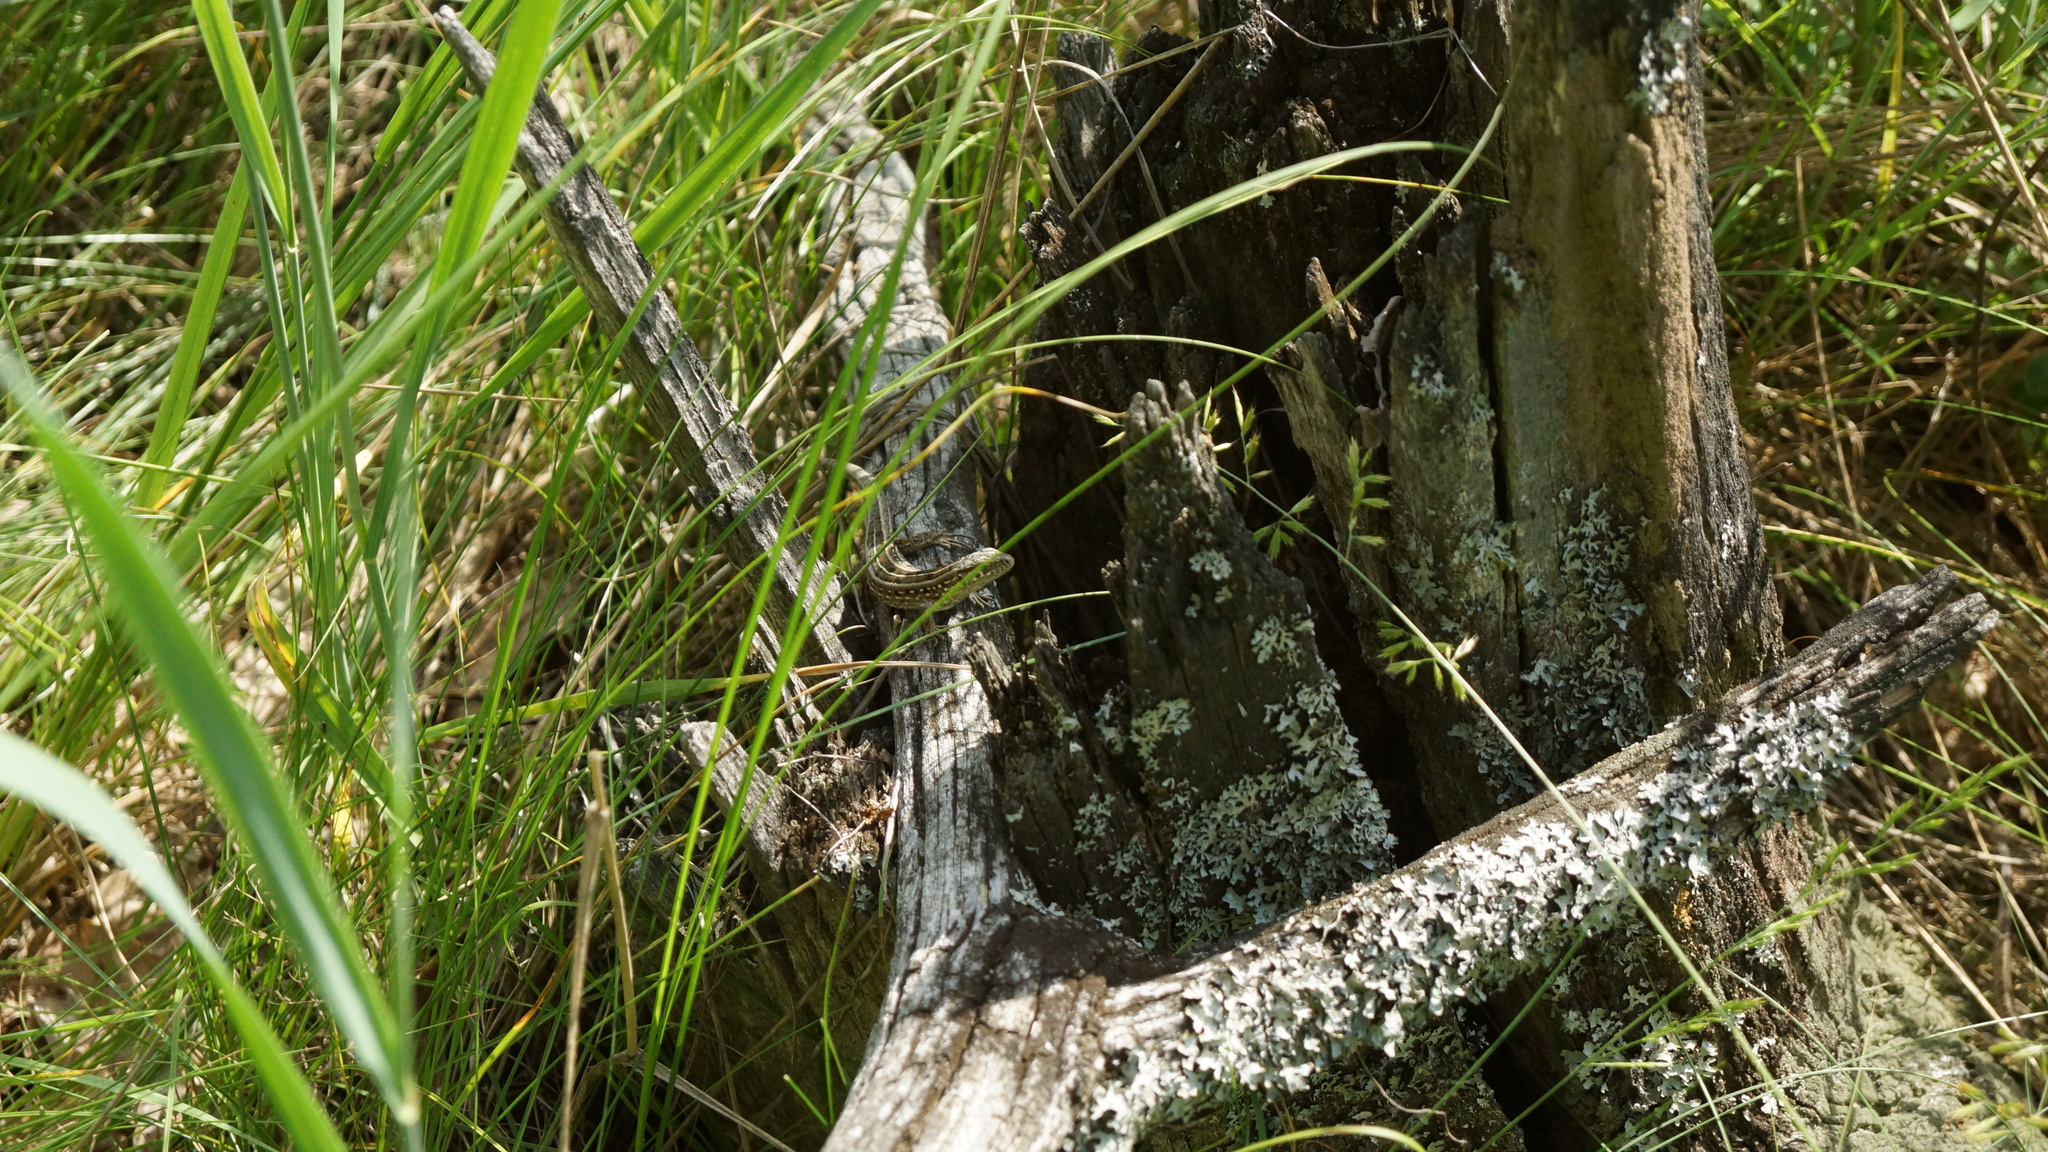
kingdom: Animalia
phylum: Chordata
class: Squamata
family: Lacertidae
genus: Lacerta
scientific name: Lacerta agilis
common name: Sand lizard
